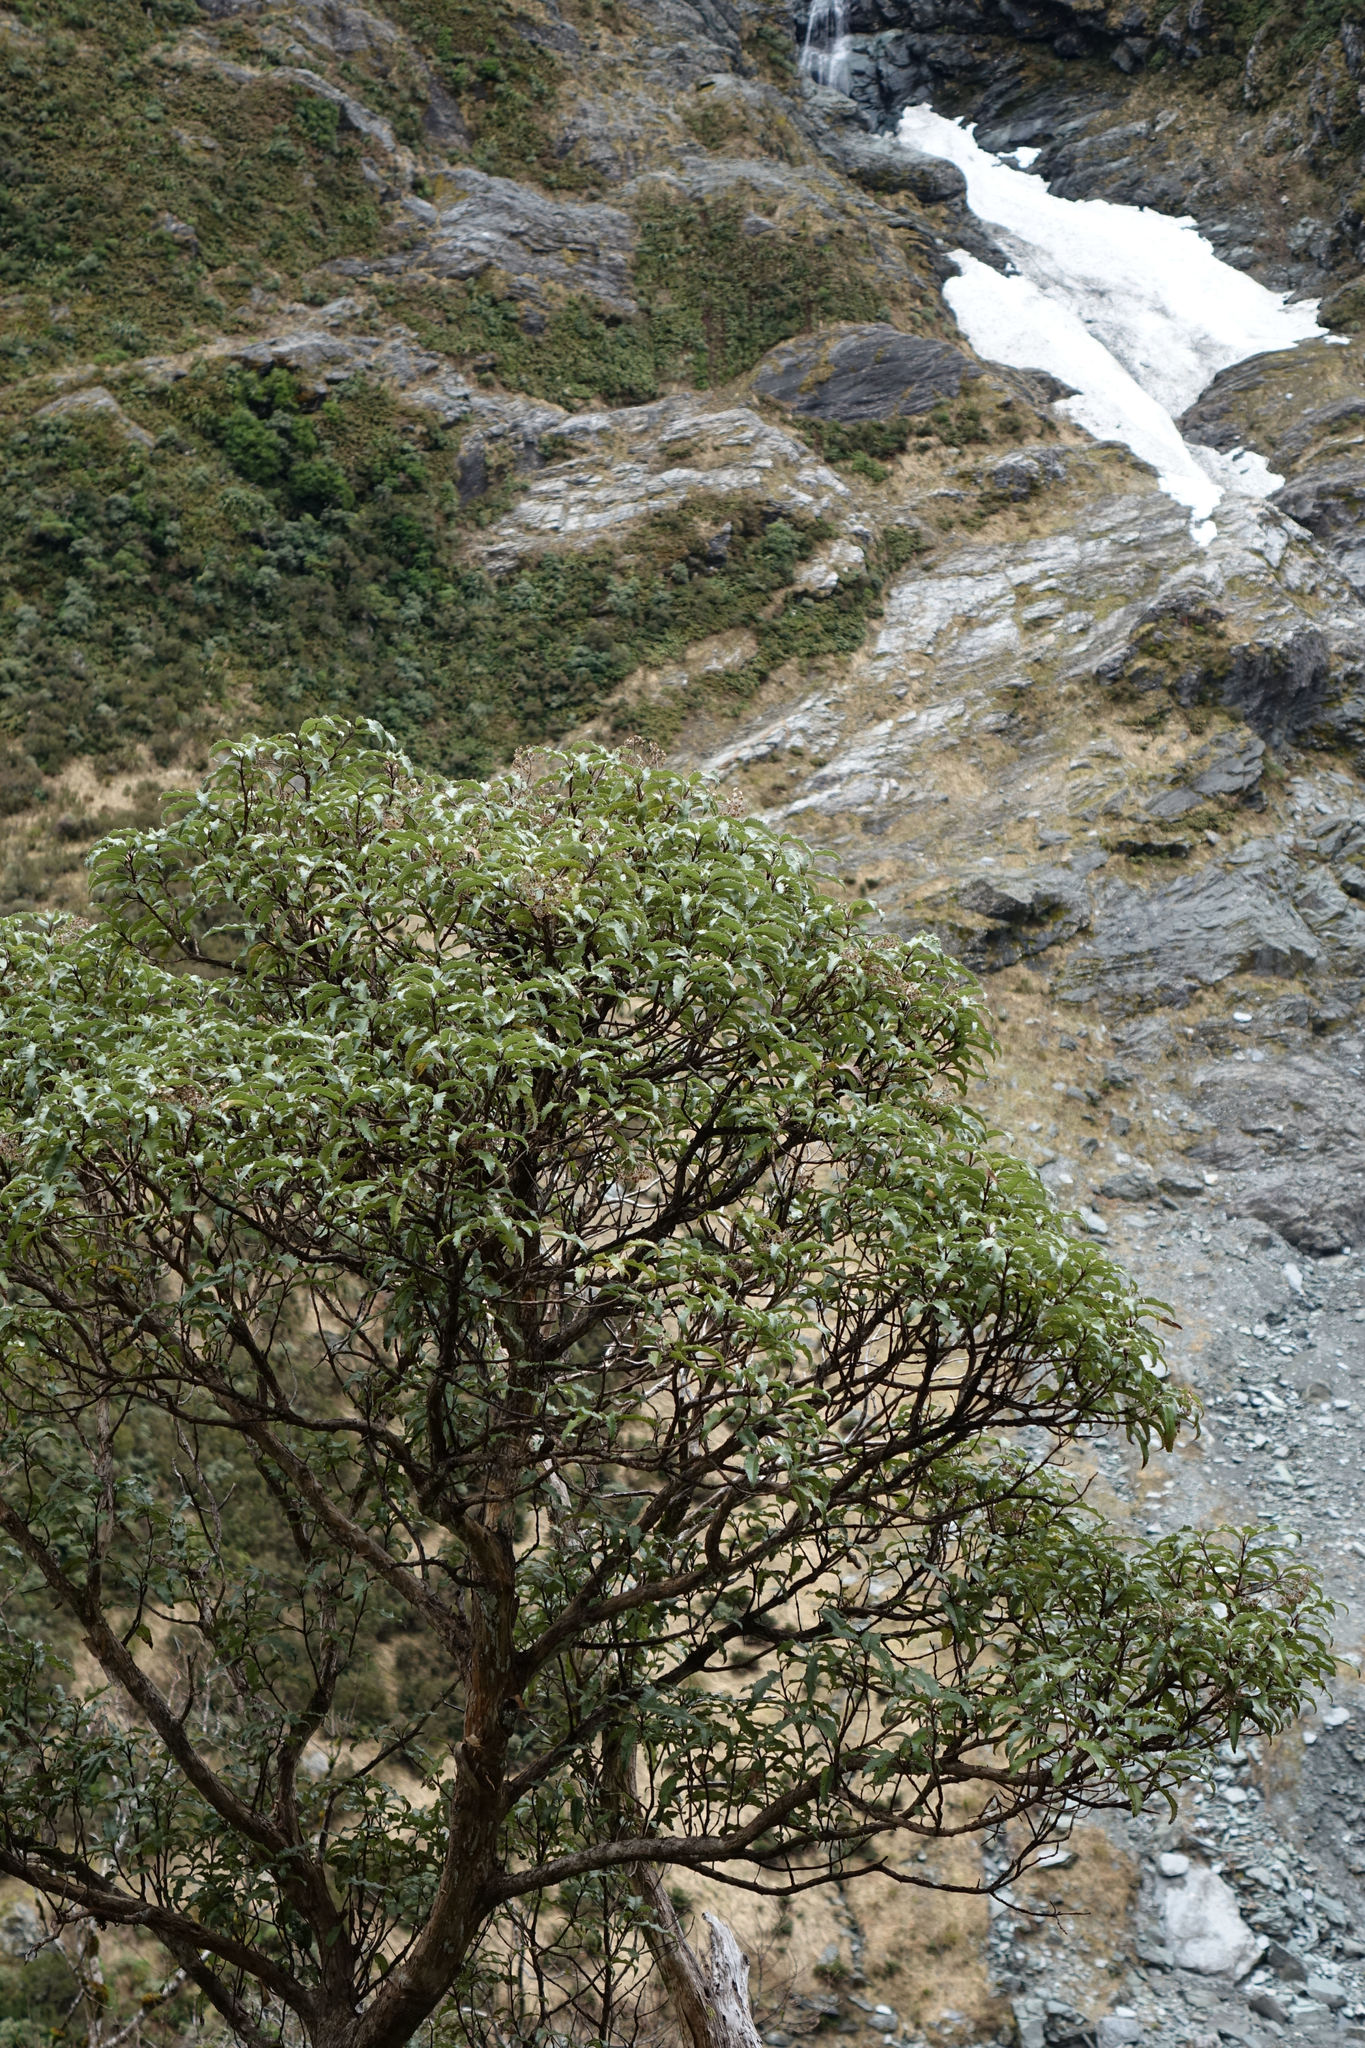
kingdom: Plantae
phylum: Tracheophyta
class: Magnoliopsida
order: Asterales
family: Asteraceae
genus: Olearia
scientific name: Olearia ilicifolia
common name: Maori-holly
